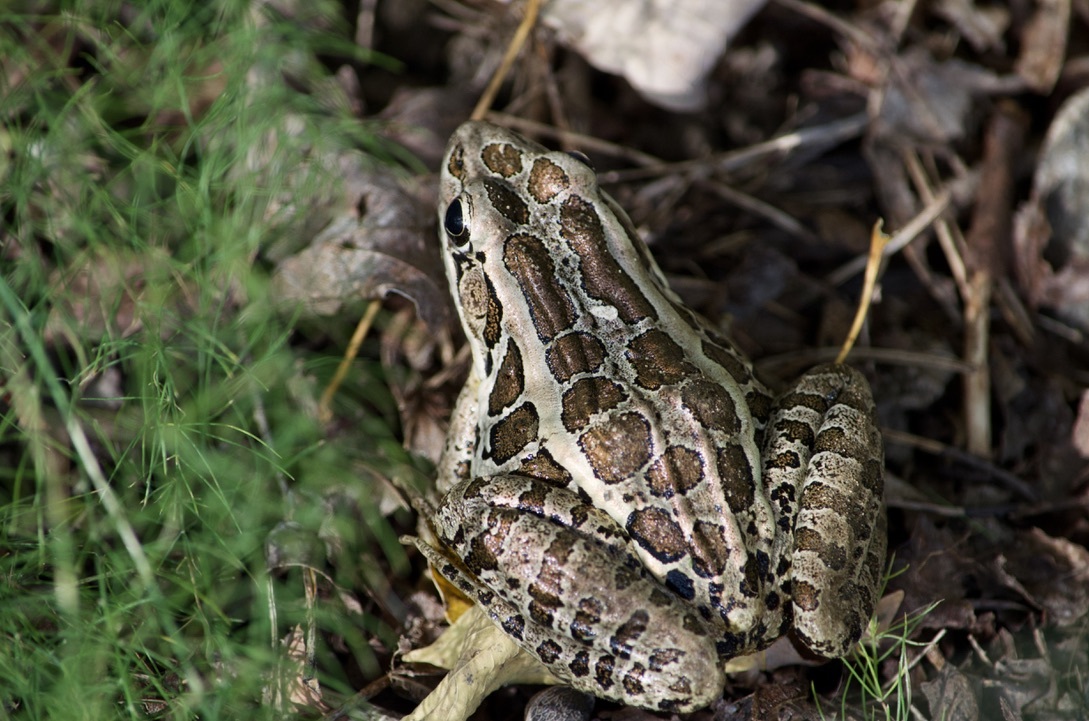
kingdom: Animalia
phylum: Chordata
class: Amphibia
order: Anura
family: Ranidae
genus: Lithobates
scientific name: Lithobates palustris
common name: Pickerel frog
